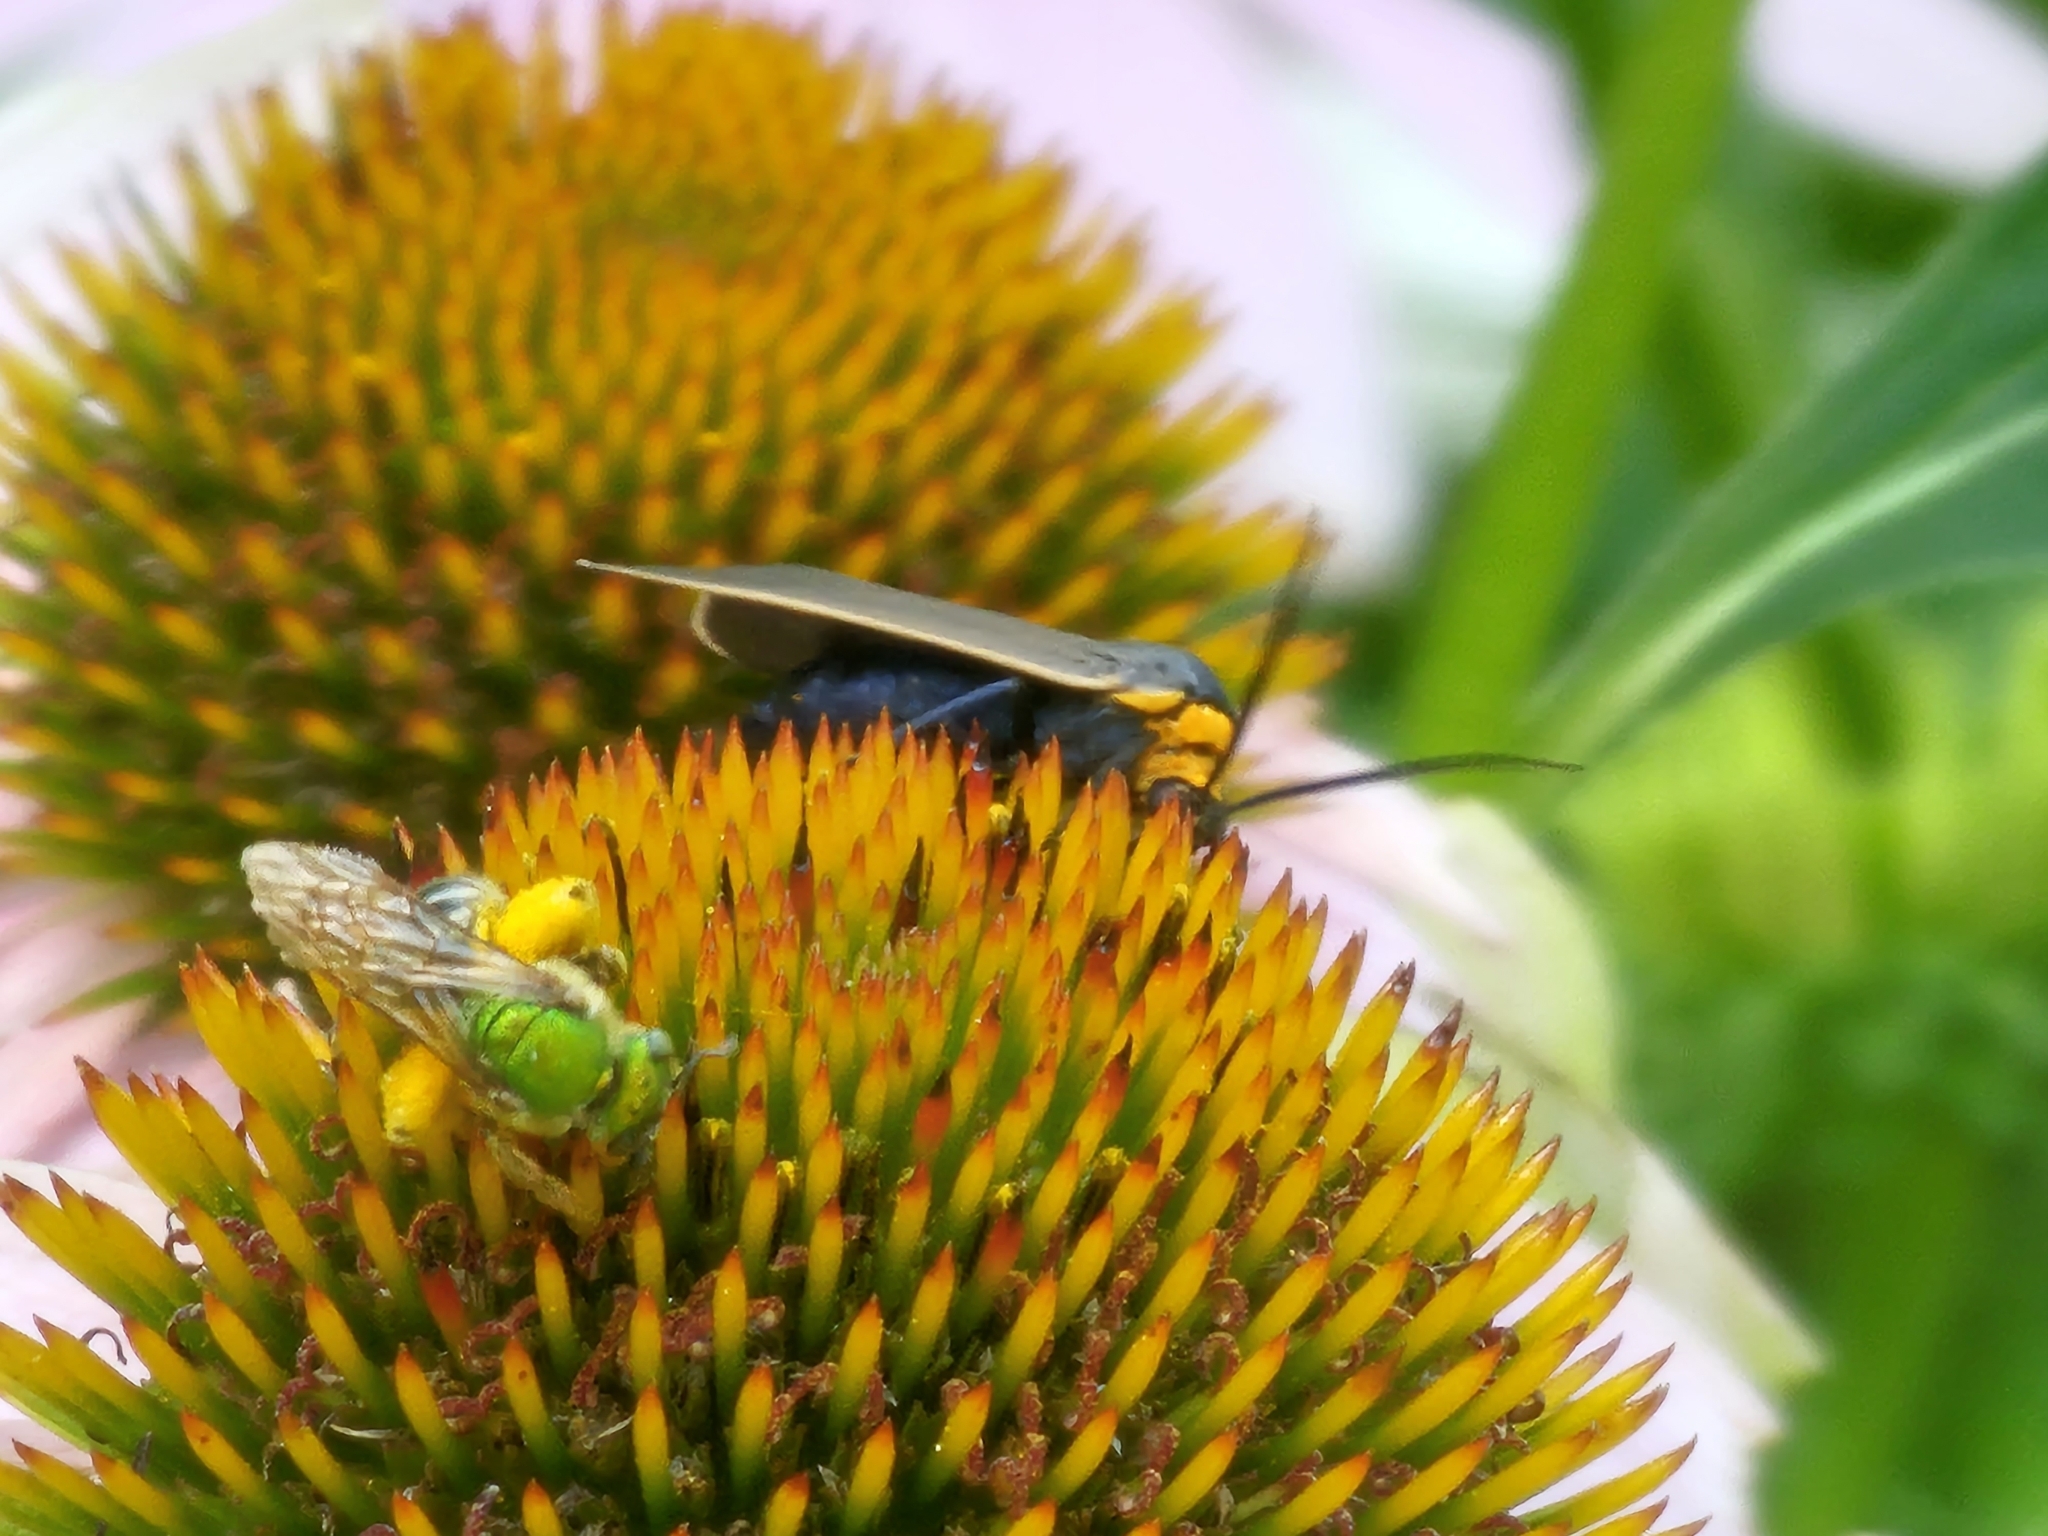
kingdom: Animalia
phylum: Arthropoda
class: Insecta
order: Lepidoptera
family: Erebidae
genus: Cisseps
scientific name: Cisseps fulvicollis
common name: Yellow-collared scape moth
